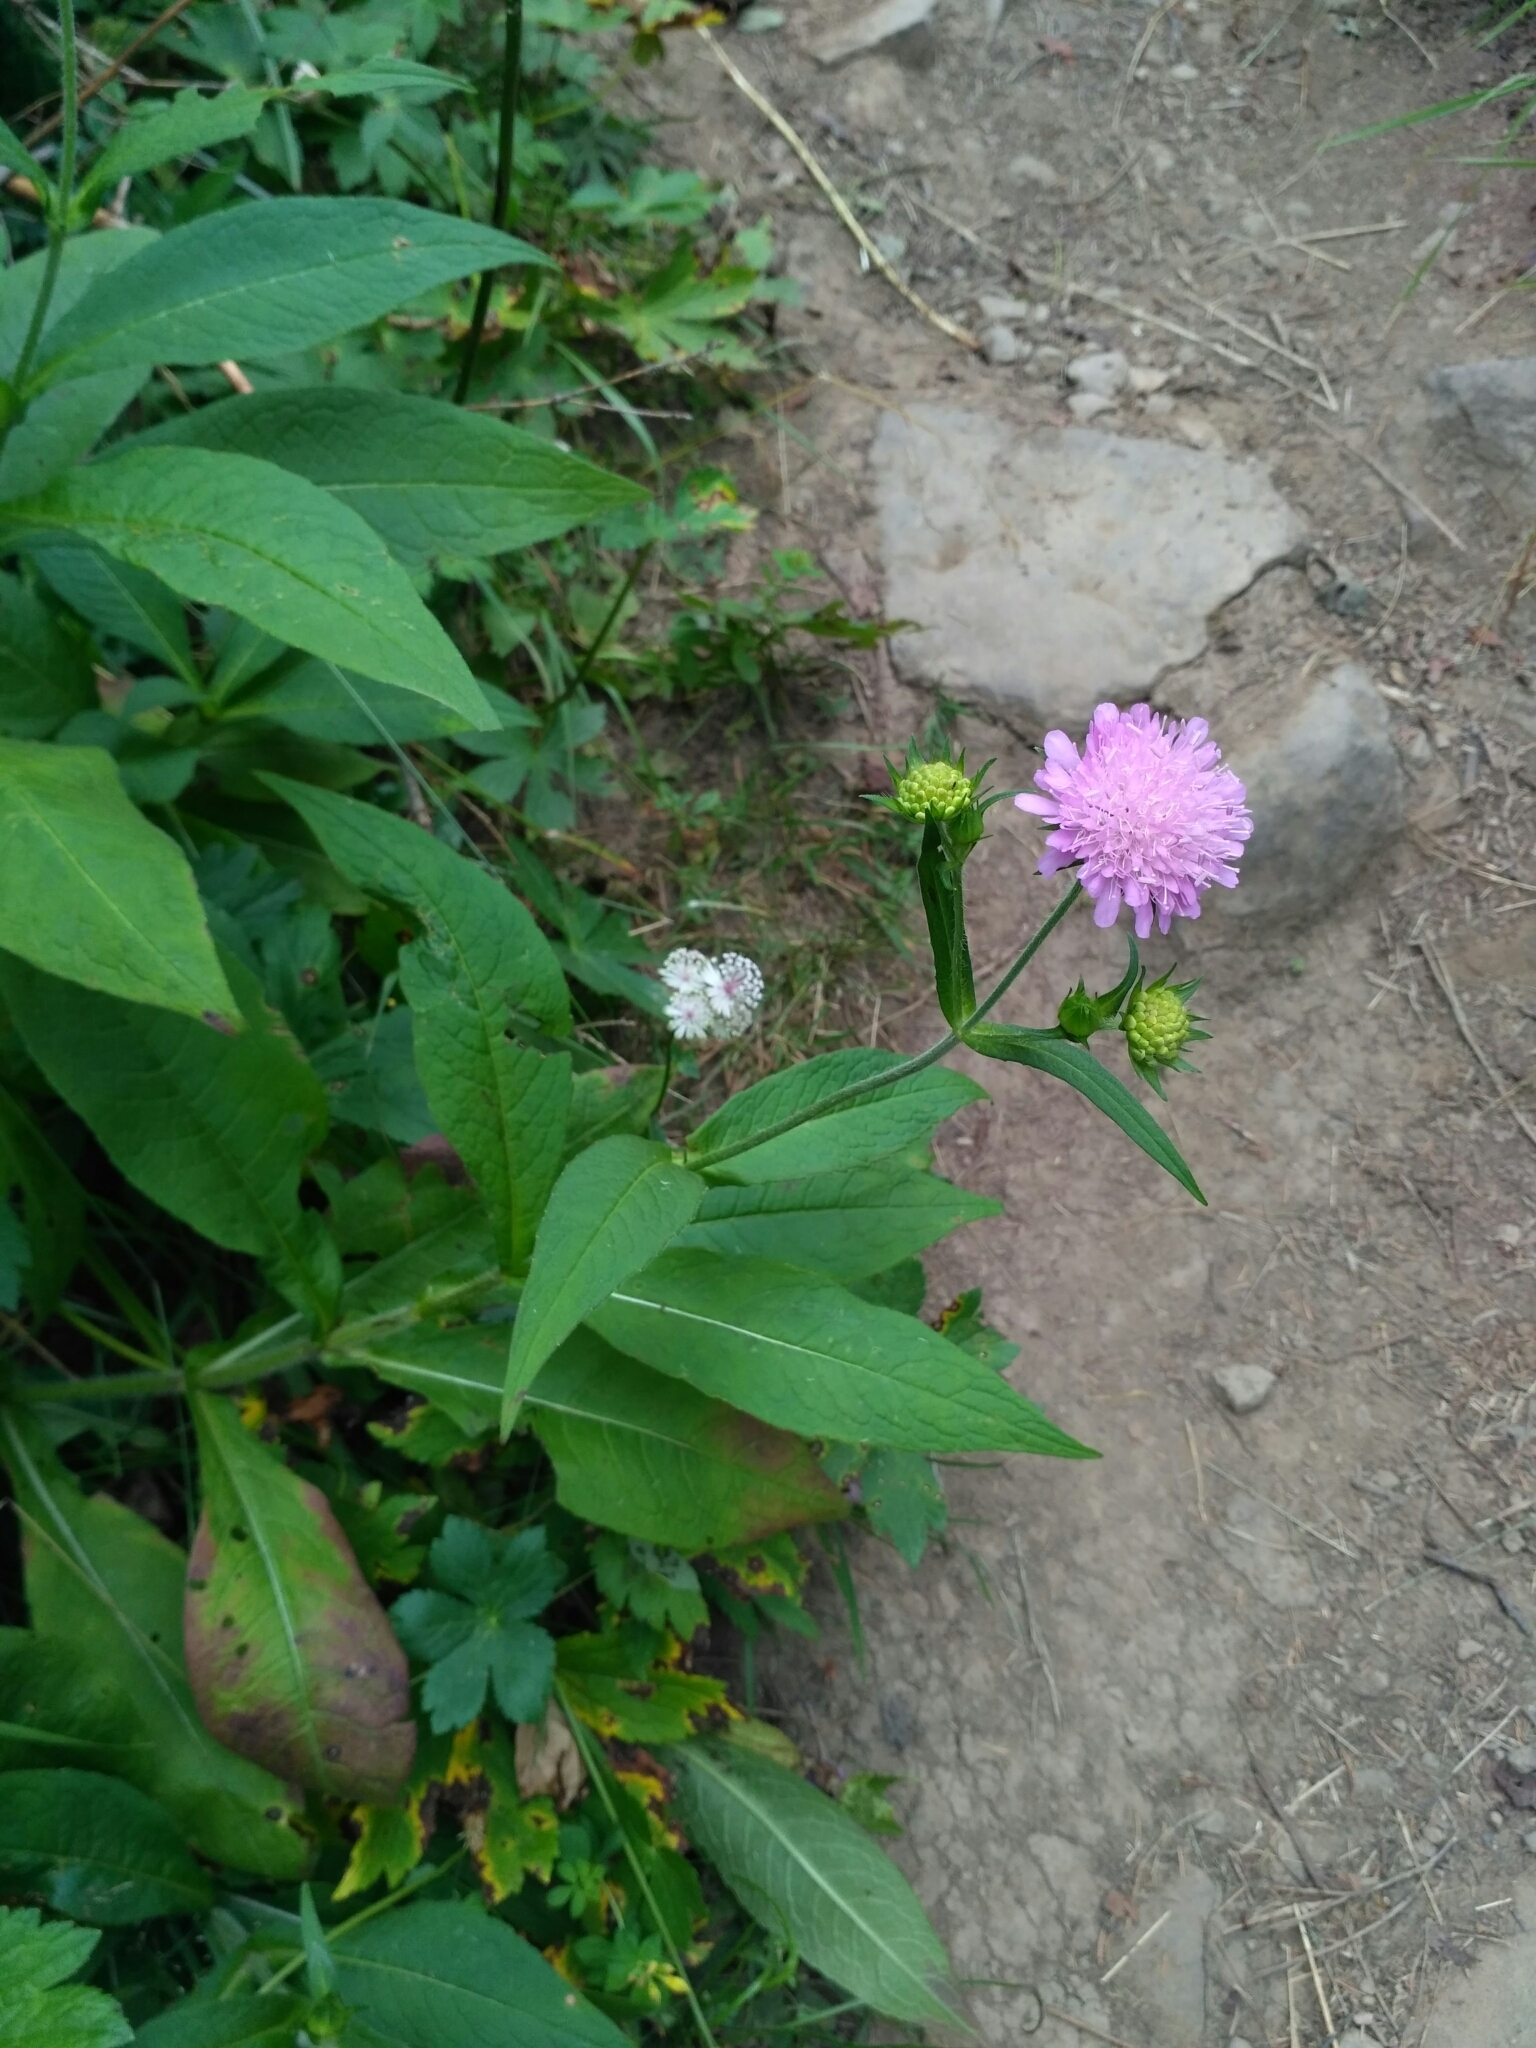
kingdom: Plantae
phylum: Tracheophyta
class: Magnoliopsida
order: Dipsacales
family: Caprifoliaceae
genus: Knautia
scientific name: Knautia dipsacifolia
